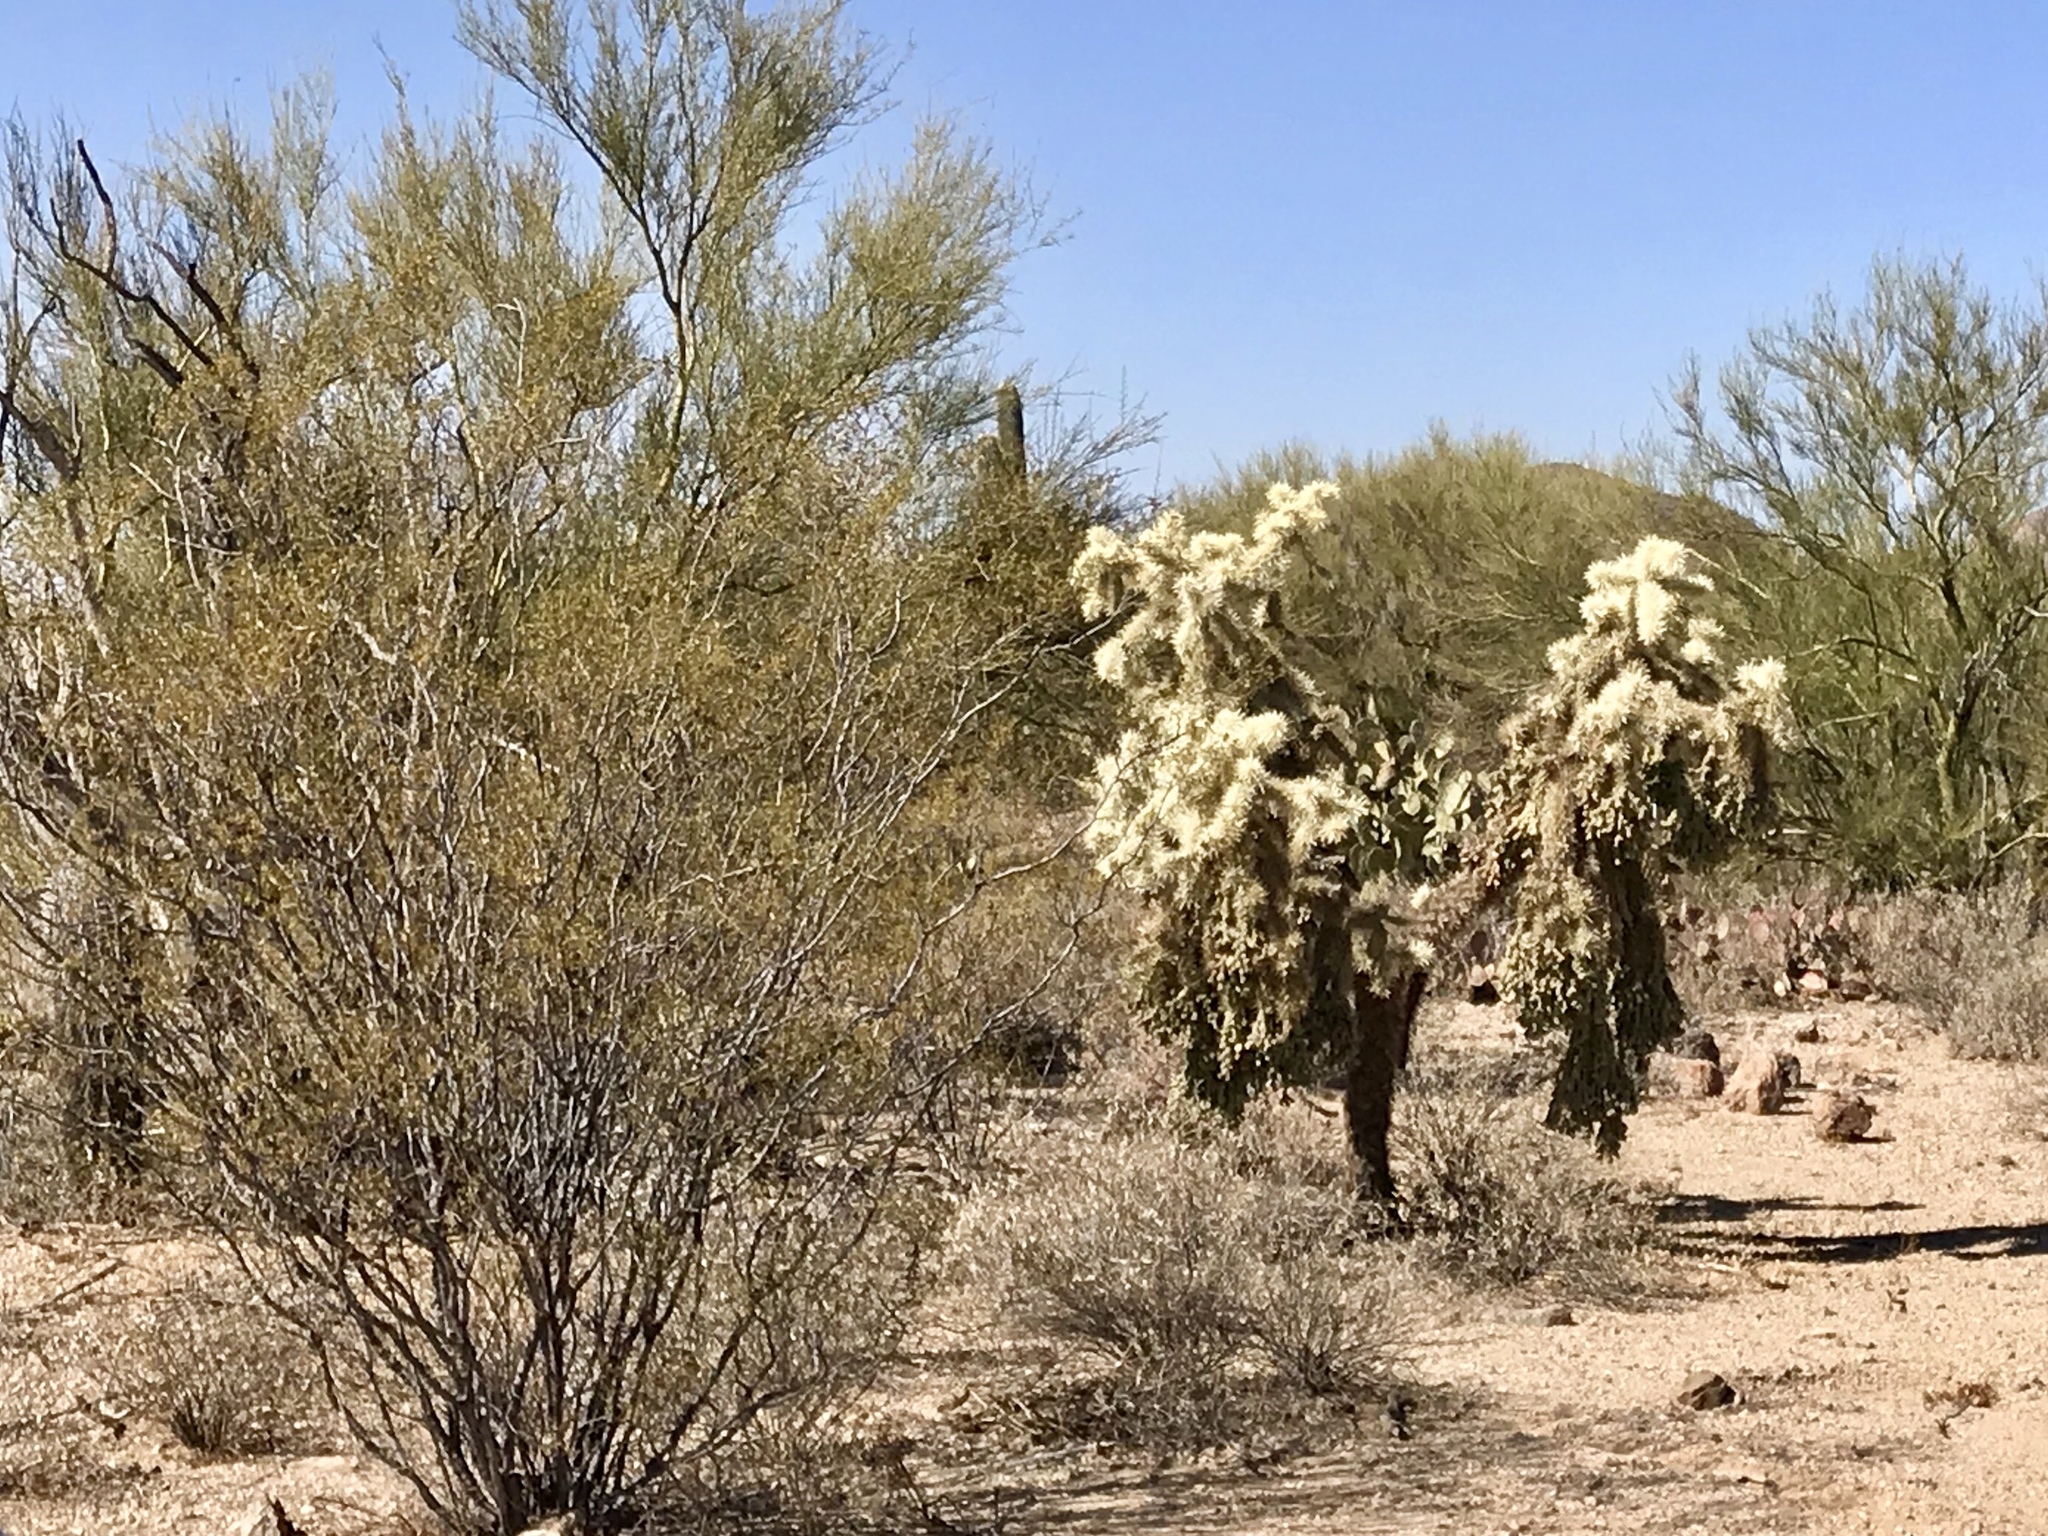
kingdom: Plantae
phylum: Tracheophyta
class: Magnoliopsida
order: Zygophyllales
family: Zygophyllaceae
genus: Larrea
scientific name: Larrea tridentata
